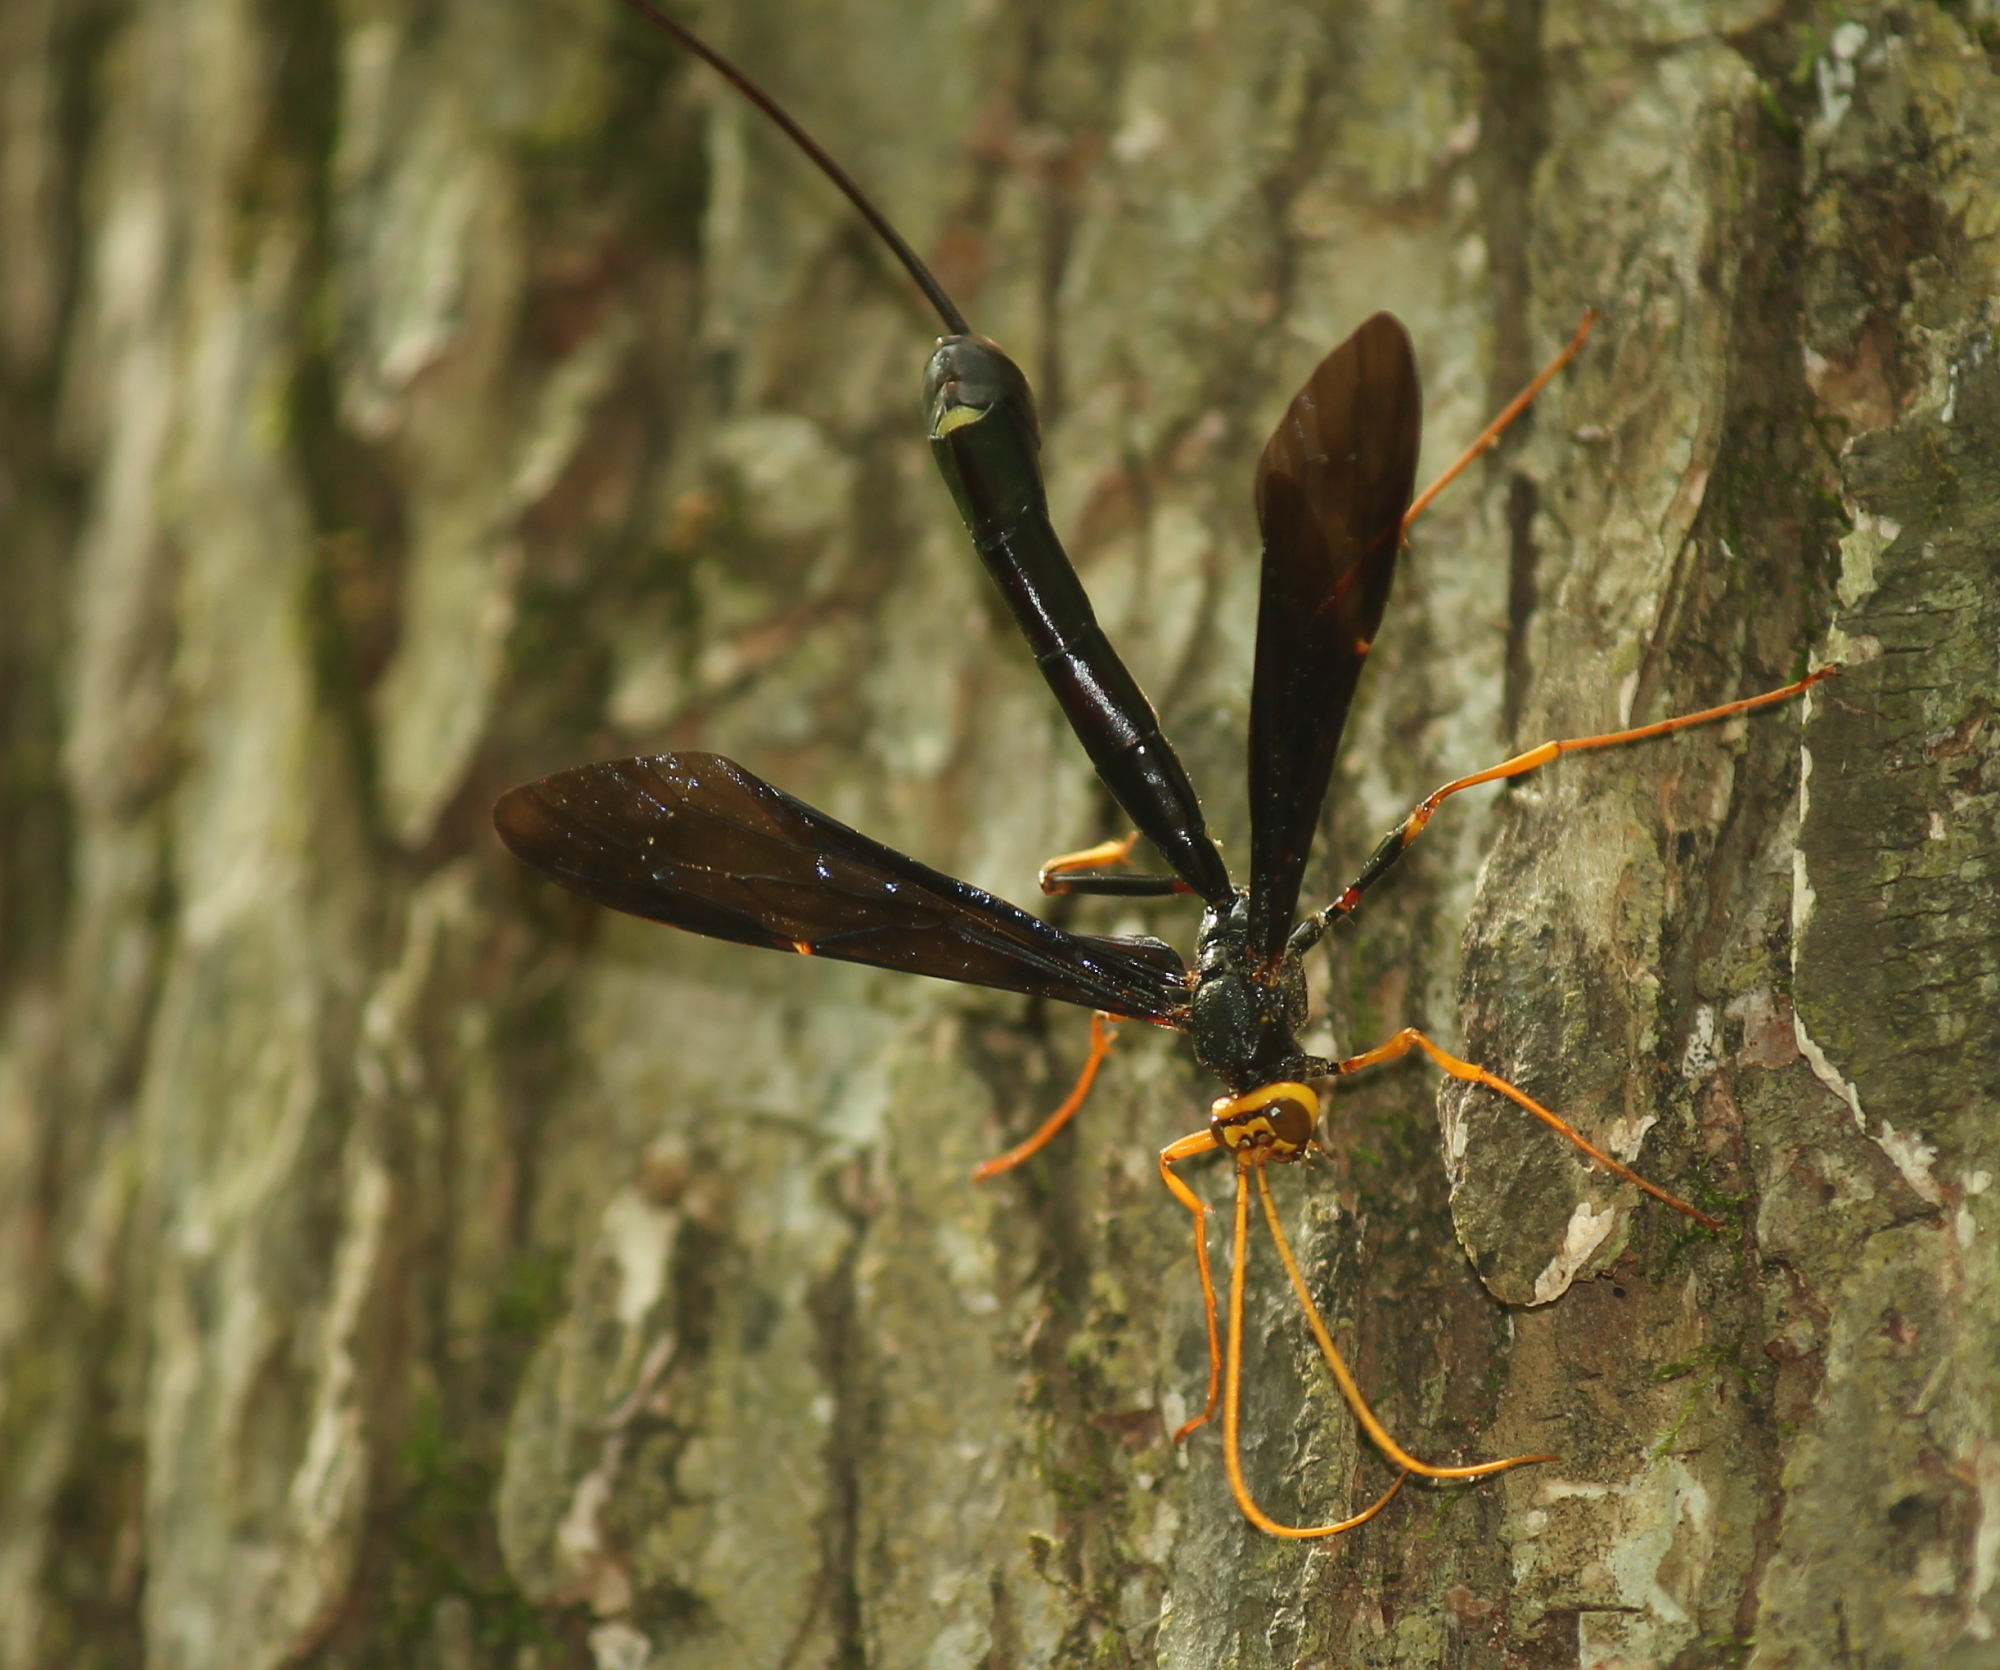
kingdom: Animalia
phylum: Arthropoda
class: Insecta
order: Hymenoptera
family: Ichneumonidae
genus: Megarhyssa
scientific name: Megarhyssa atrata
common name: Black giant ichneumonid wasp
